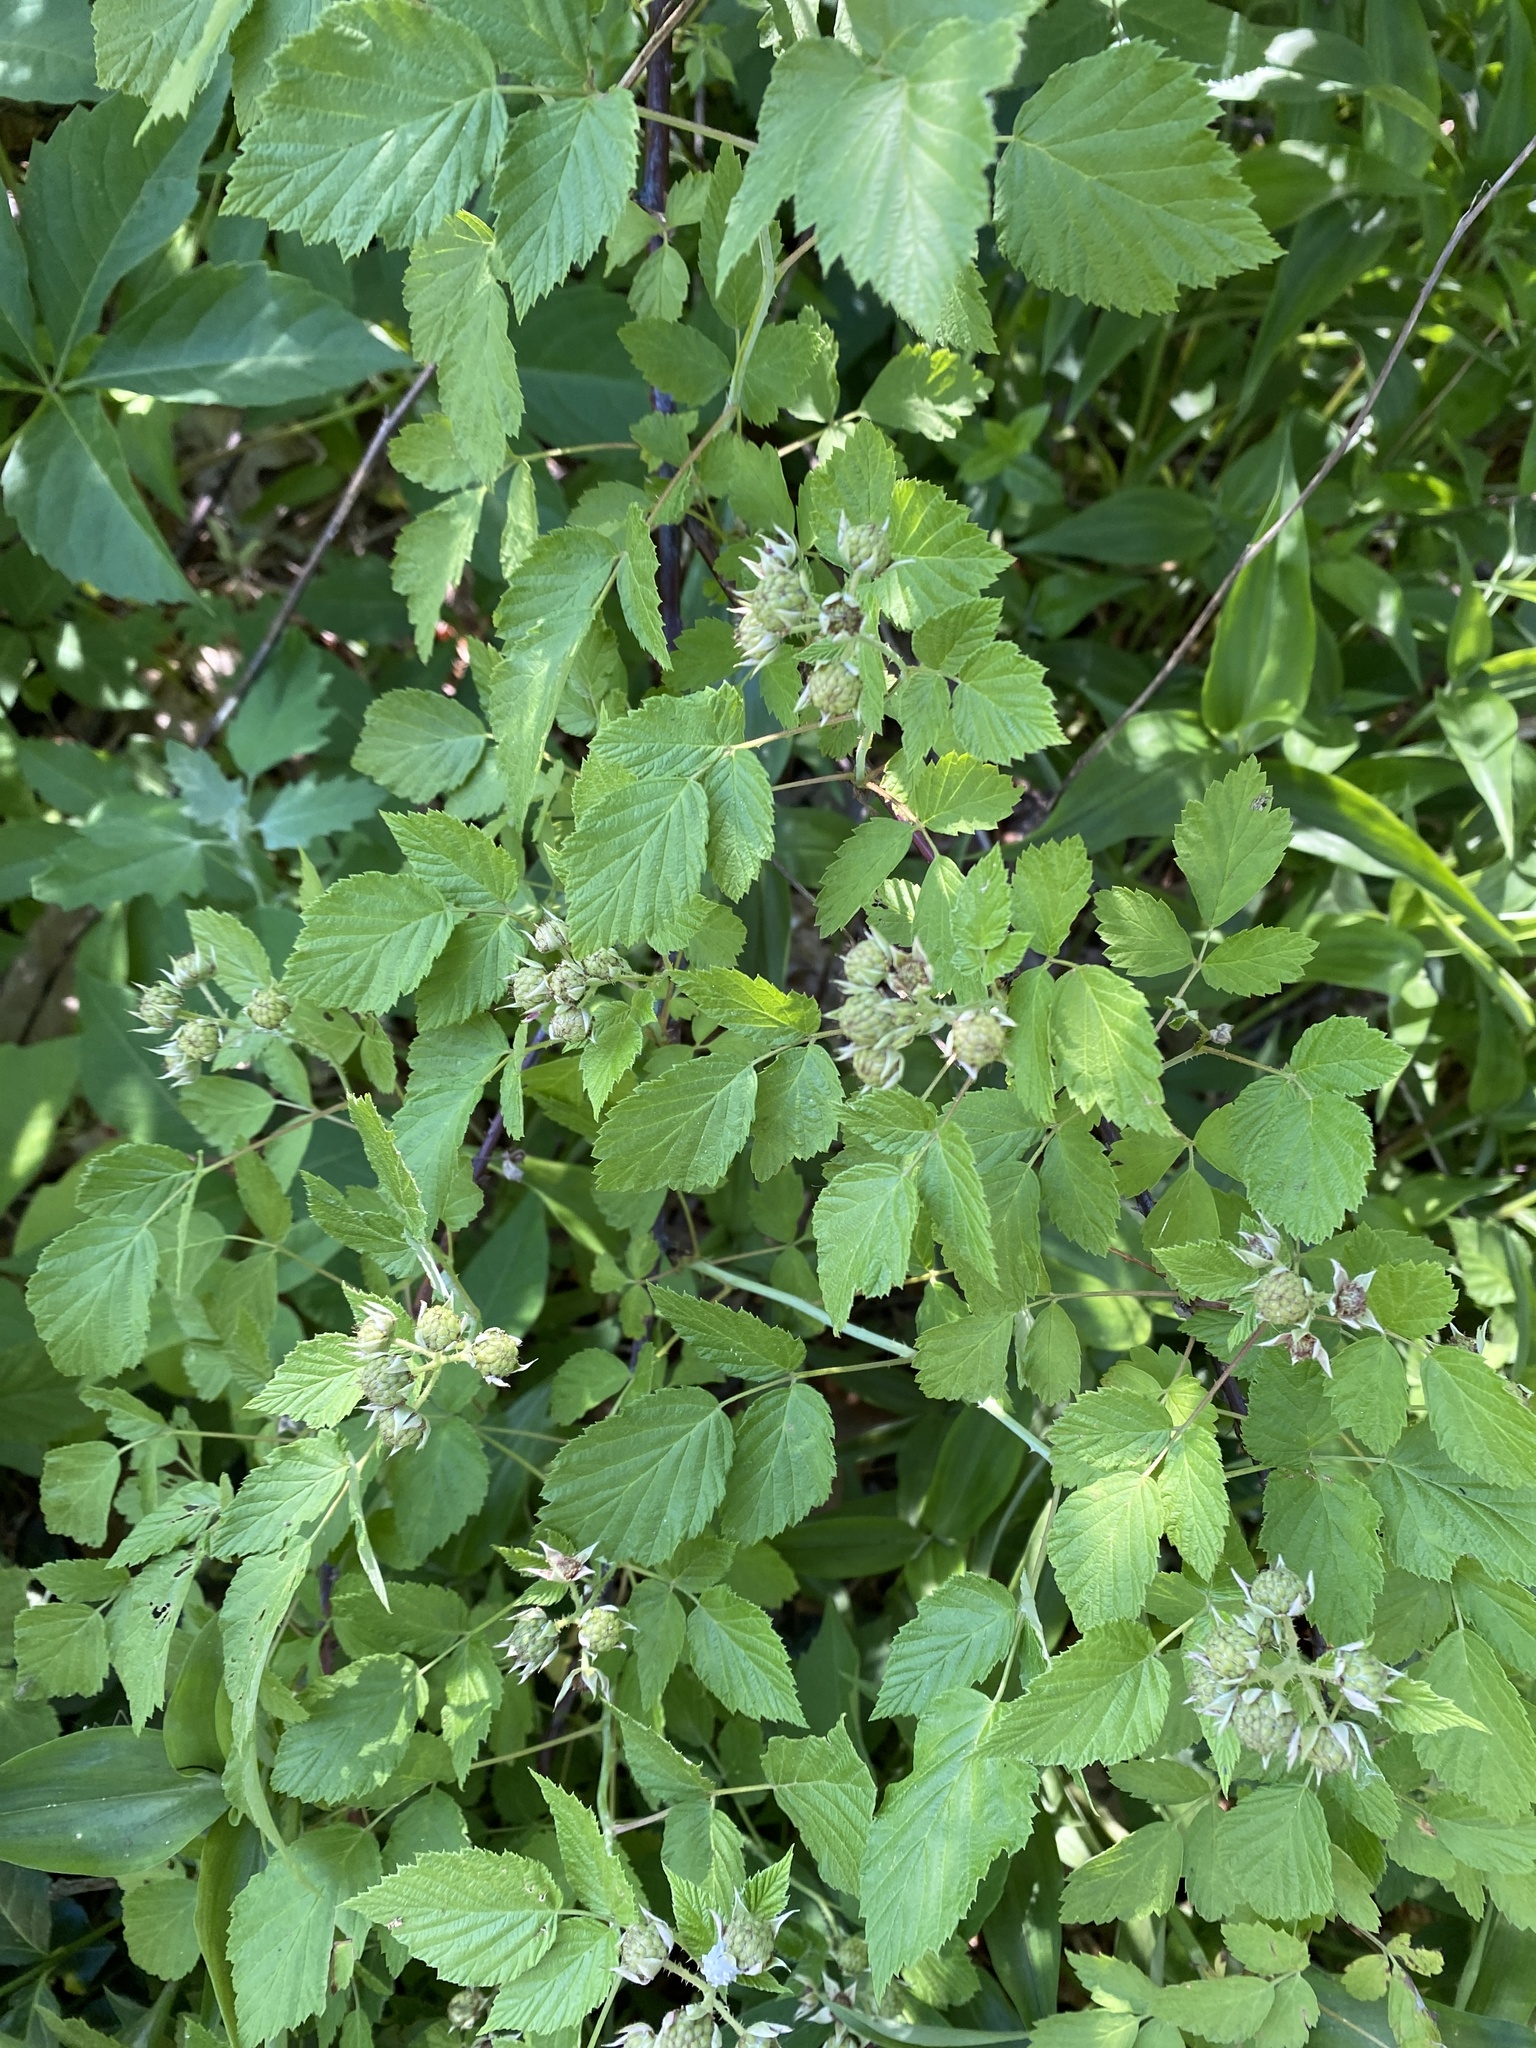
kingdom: Plantae
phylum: Tracheophyta
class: Magnoliopsida
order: Rosales
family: Rosaceae
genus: Rubus
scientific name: Rubus occidentalis
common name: Black raspberry
